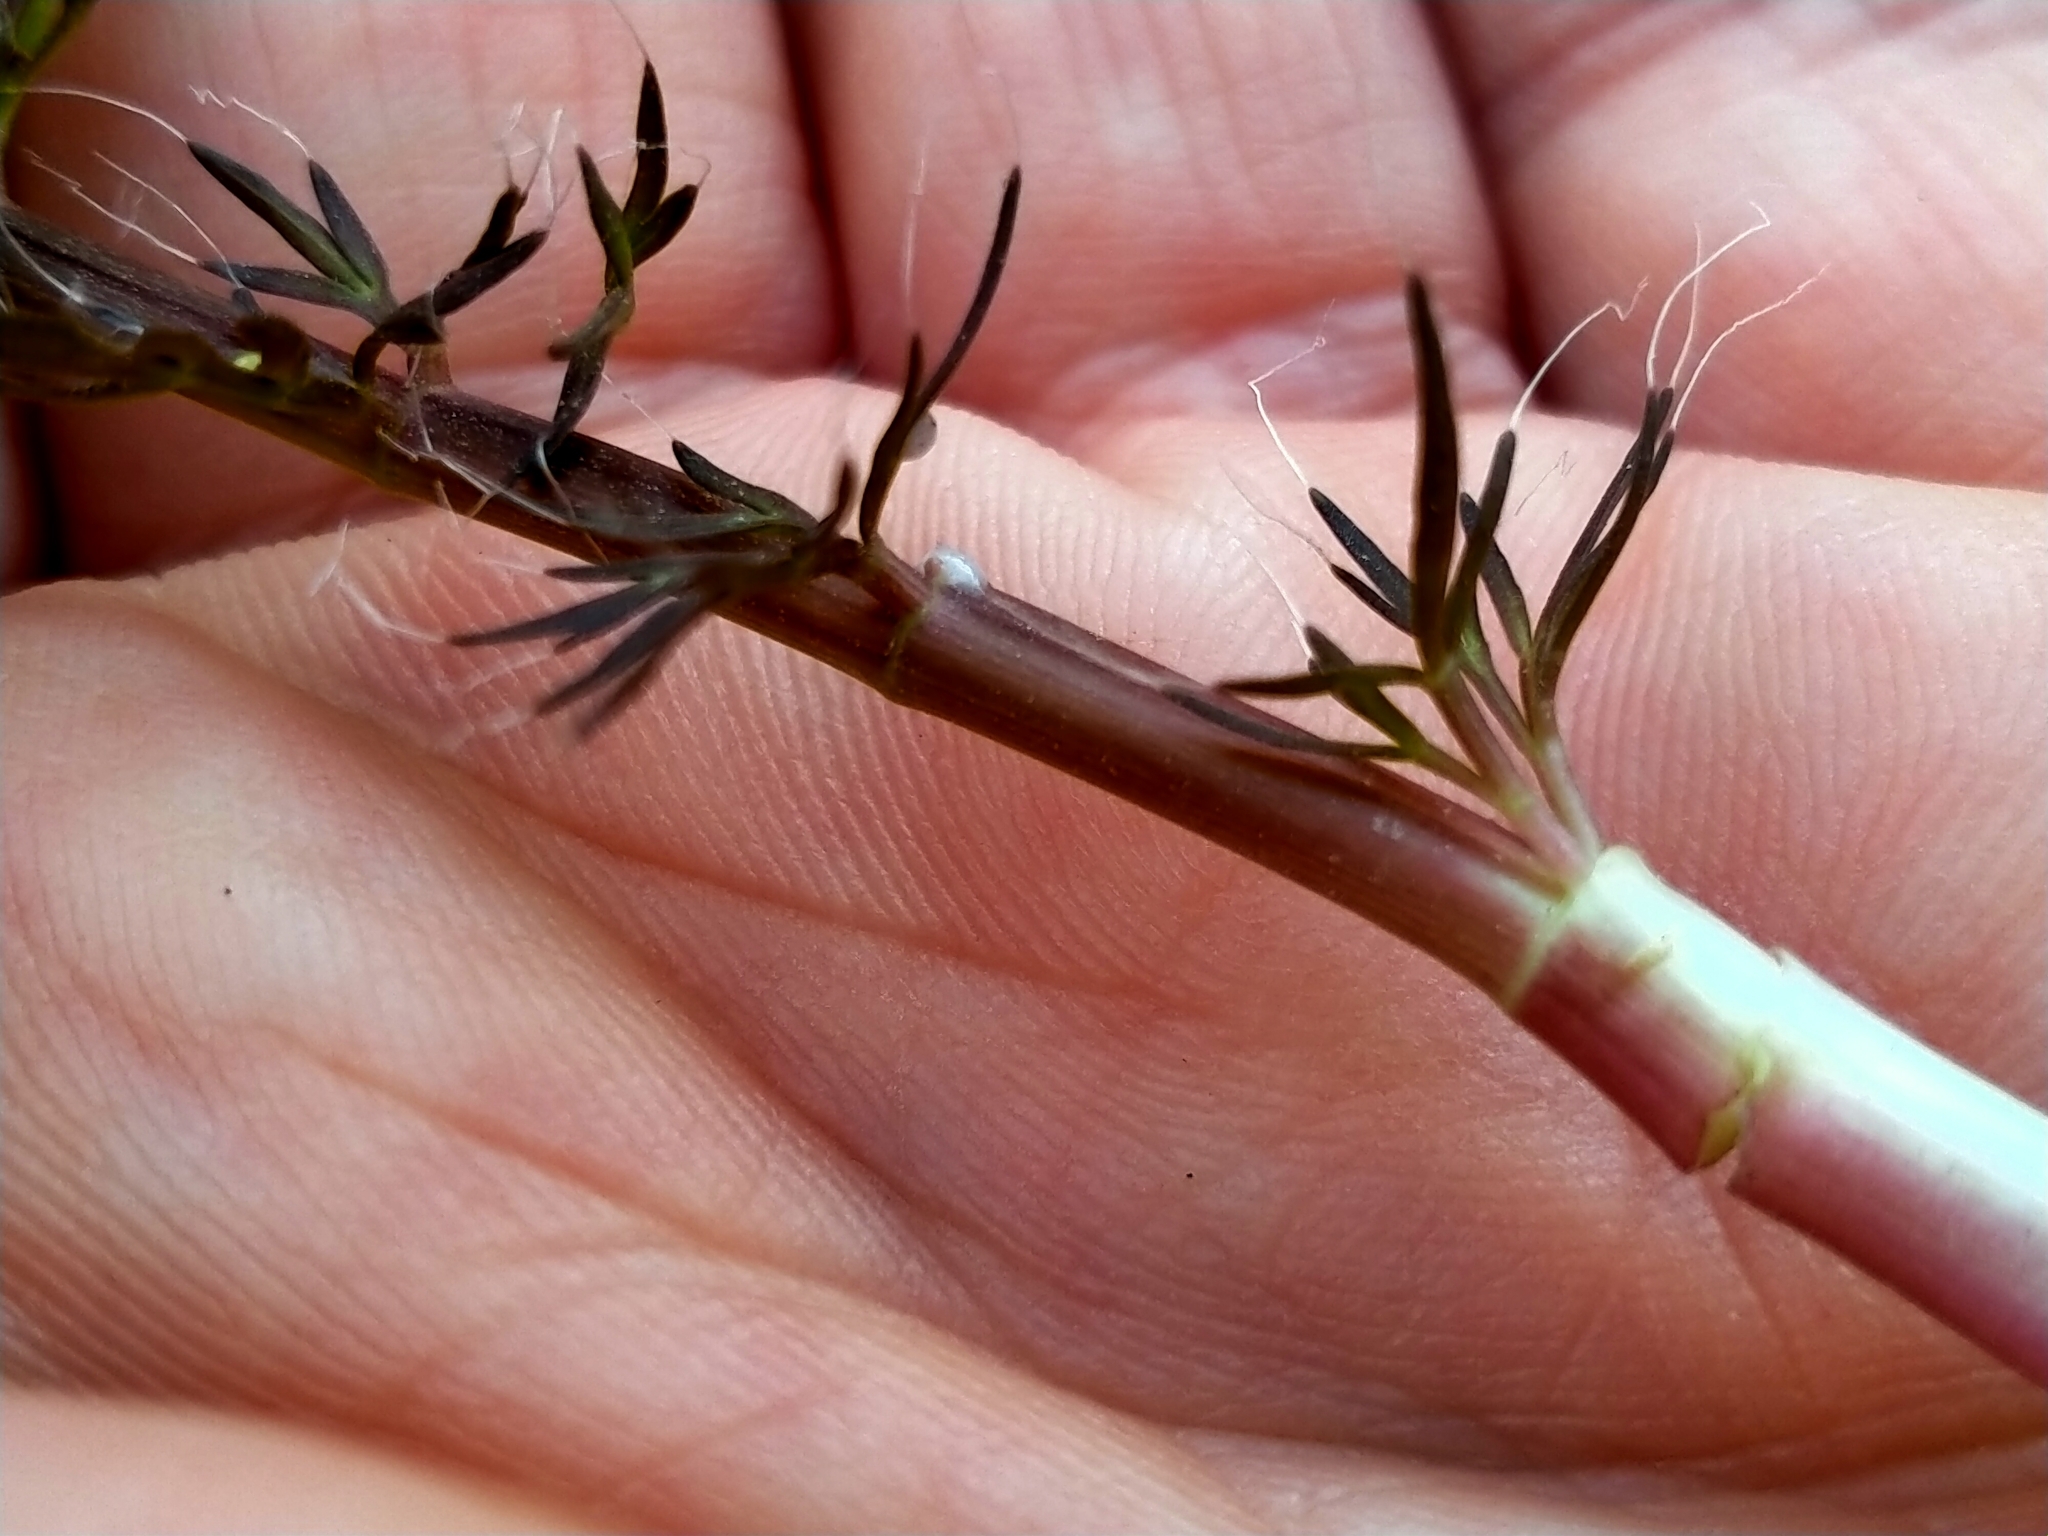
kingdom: Plantae
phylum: Tracheophyta
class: Magnoliopsida
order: Apiales
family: Apiaceae
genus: Anisotome
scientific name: Anisotome flexuosa
